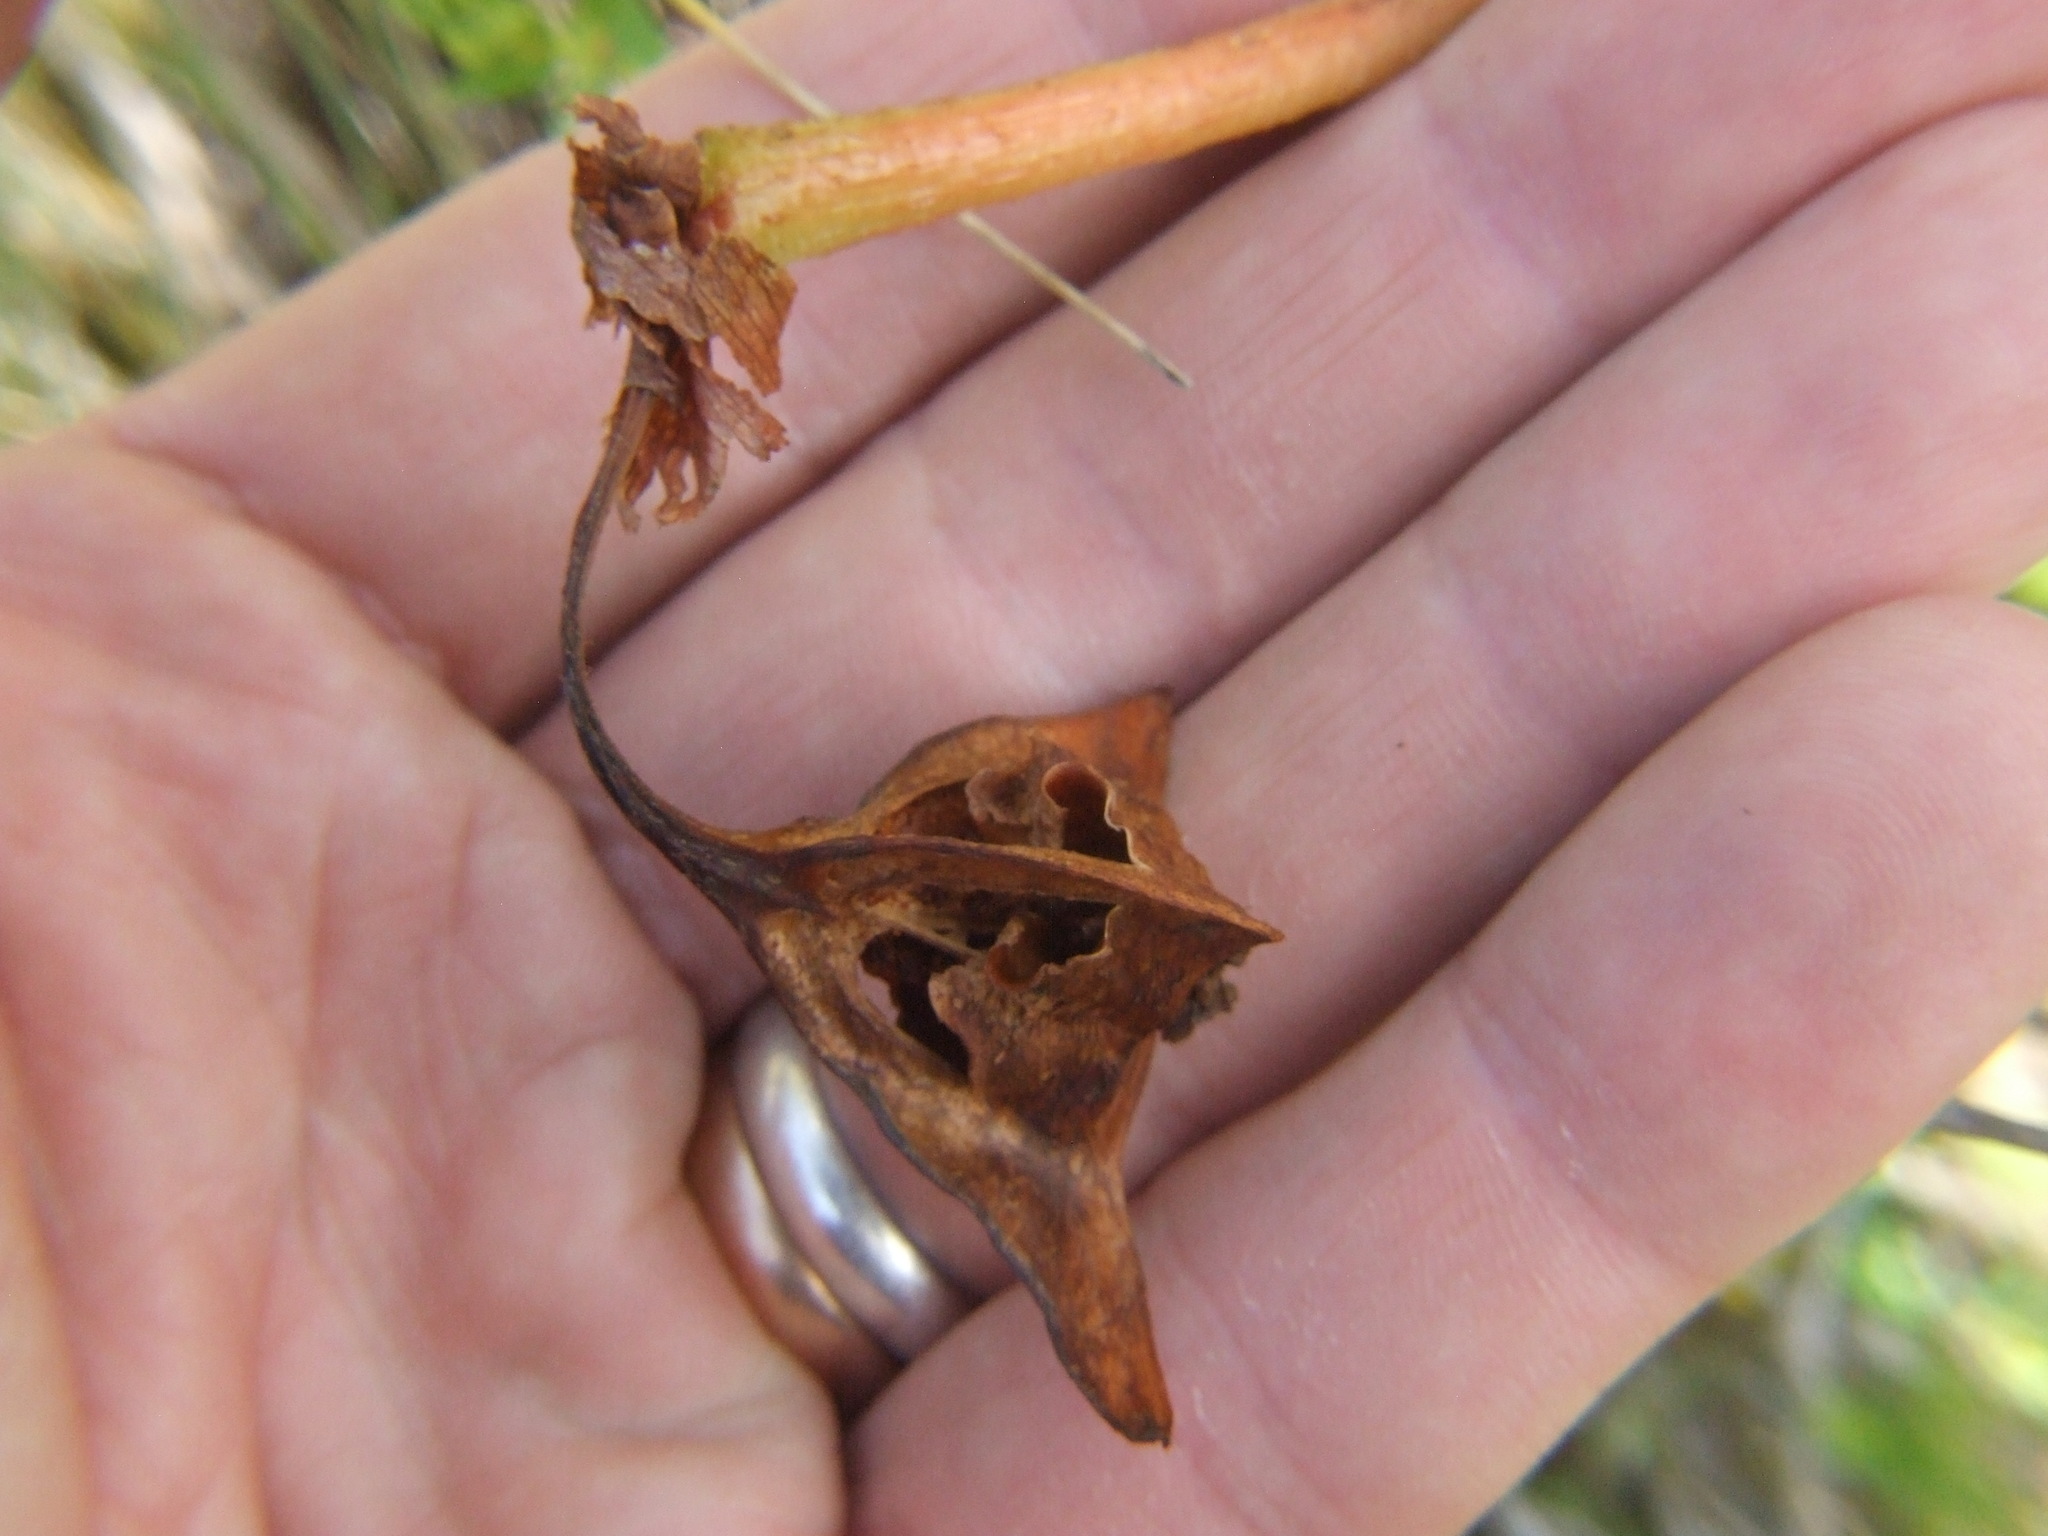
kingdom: Plantae
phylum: Tracheophyta
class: Magnoliopsida
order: Cucurbitales
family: Begoniaceae
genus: Begonia
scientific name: Begonia veitchii
